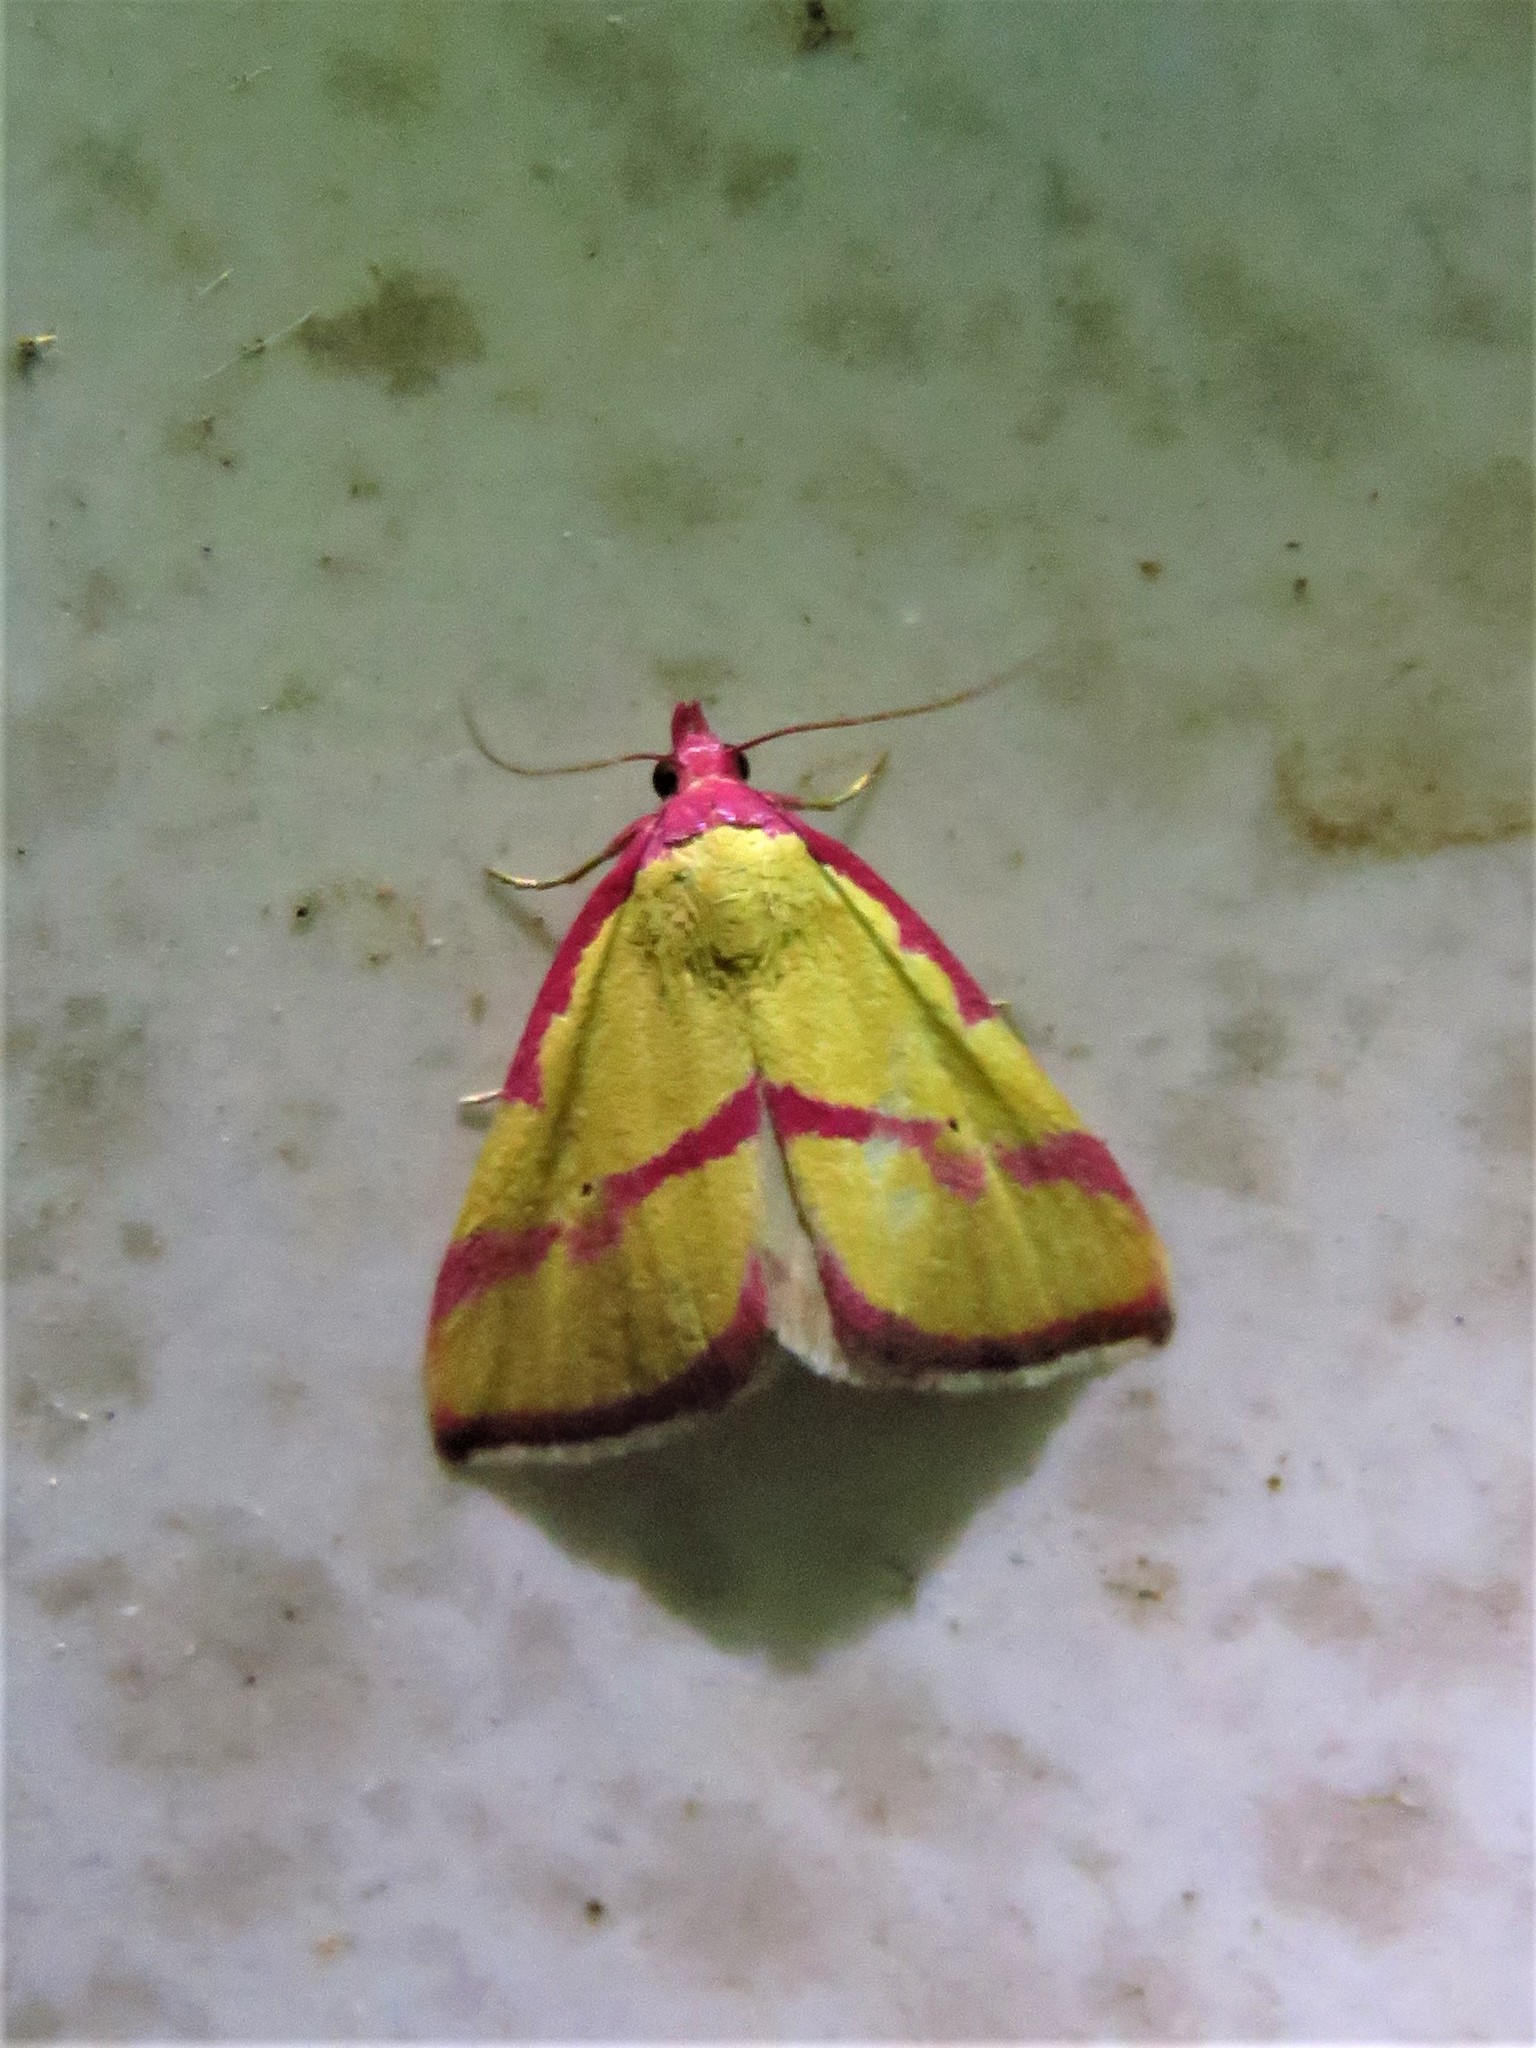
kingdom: Animalia
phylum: Arthropoda
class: Insecta
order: Lepidoptera
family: Erebidae
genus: Phytometra
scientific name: Phytometra ernestinana
